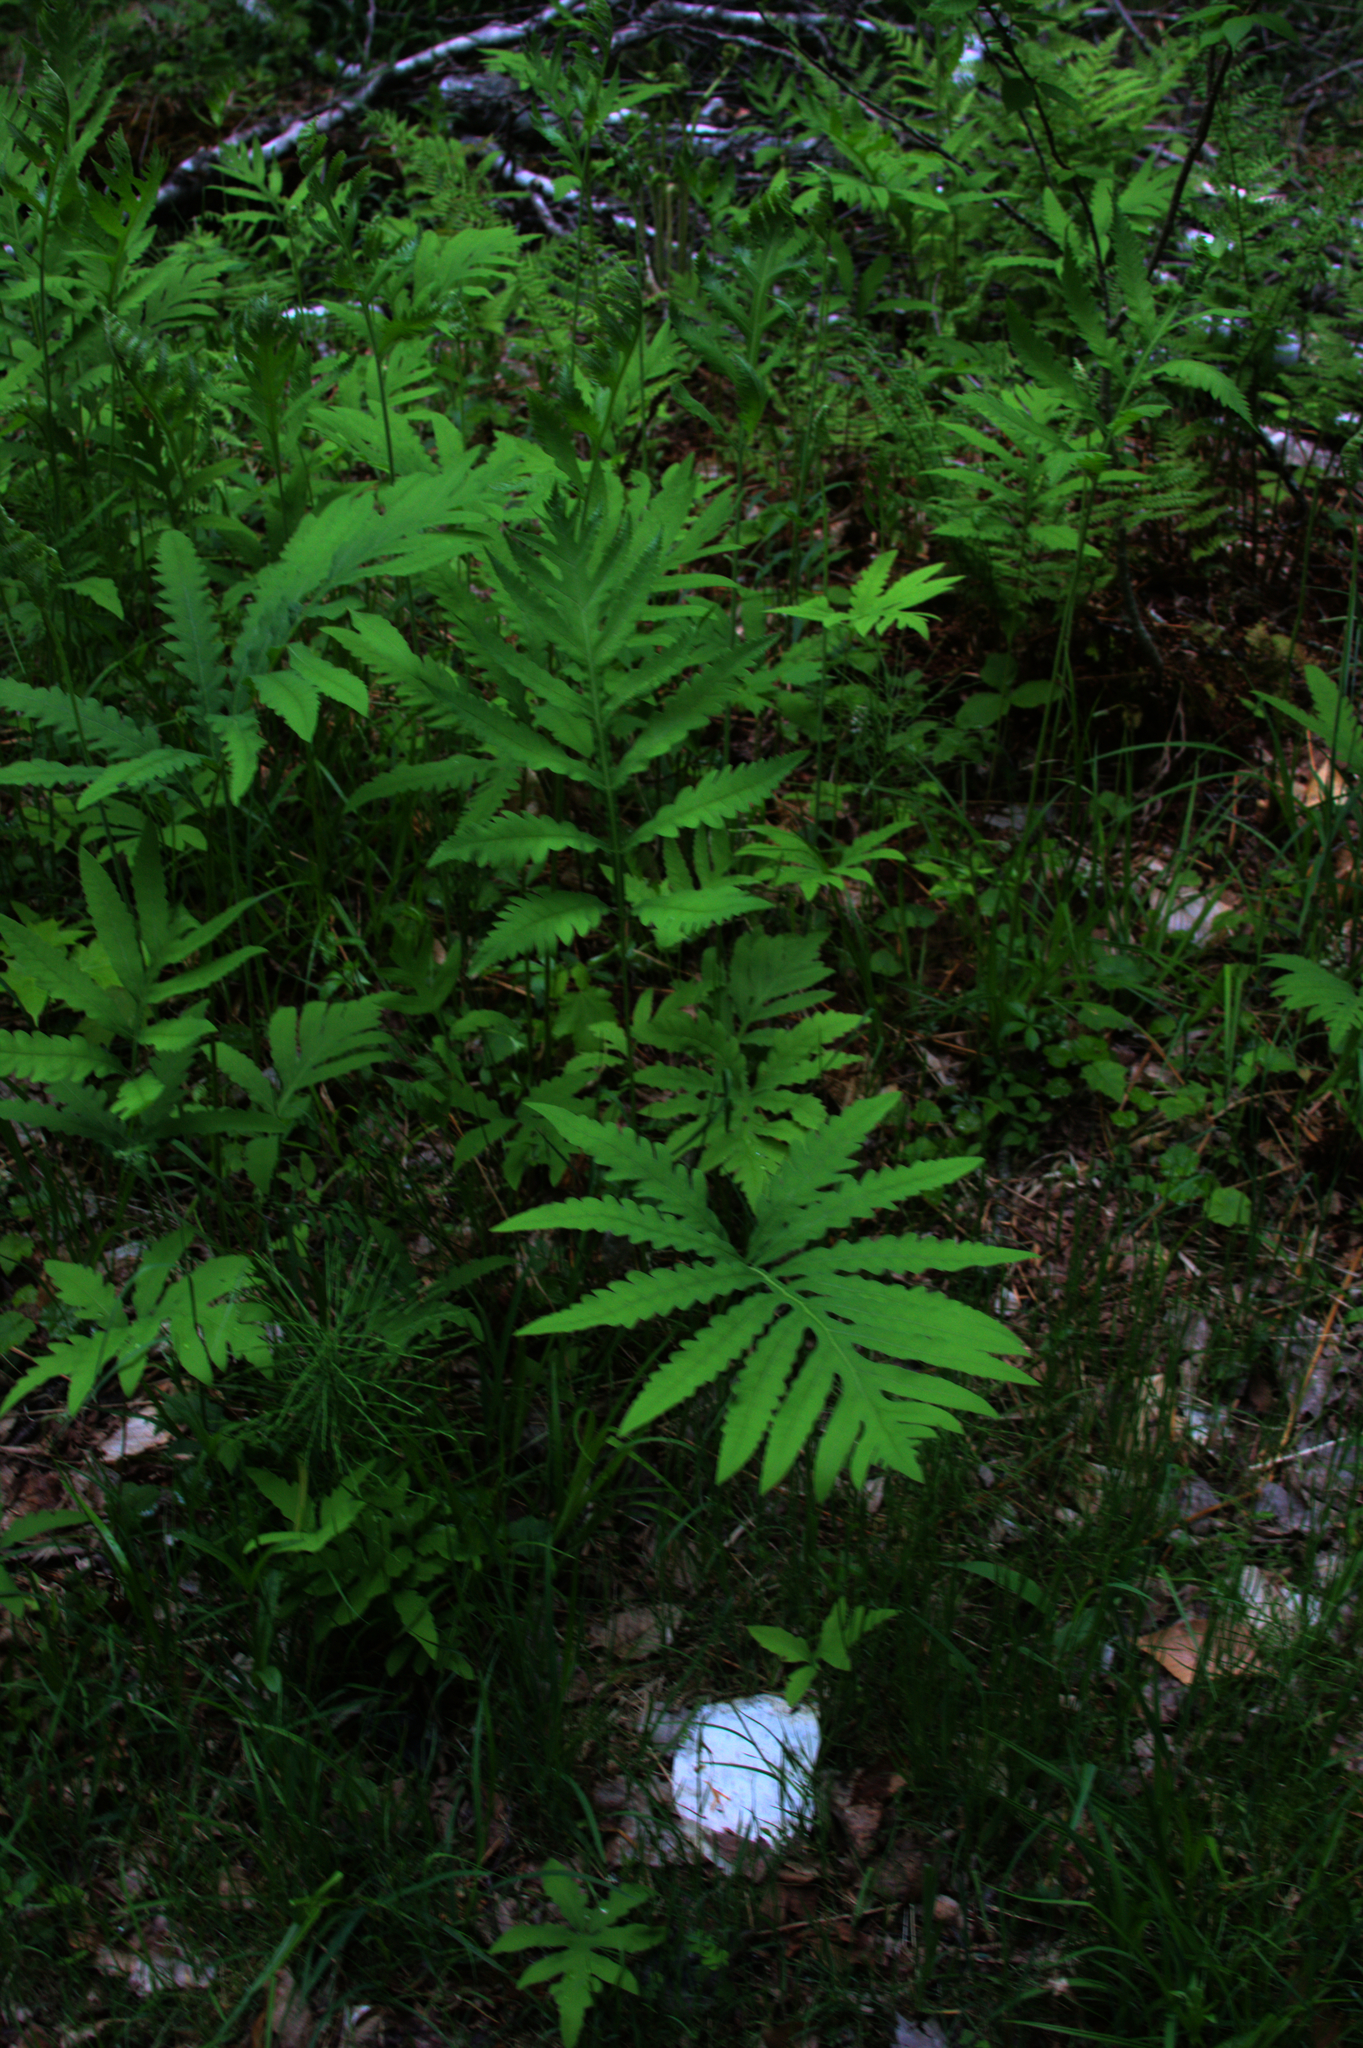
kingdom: Plantae
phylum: Tracheophyta
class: Polypodiopsida
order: Polypodiales
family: Onocleaceae
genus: Onoclea
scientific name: Onoclea sensibilis
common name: Sensitive fern
